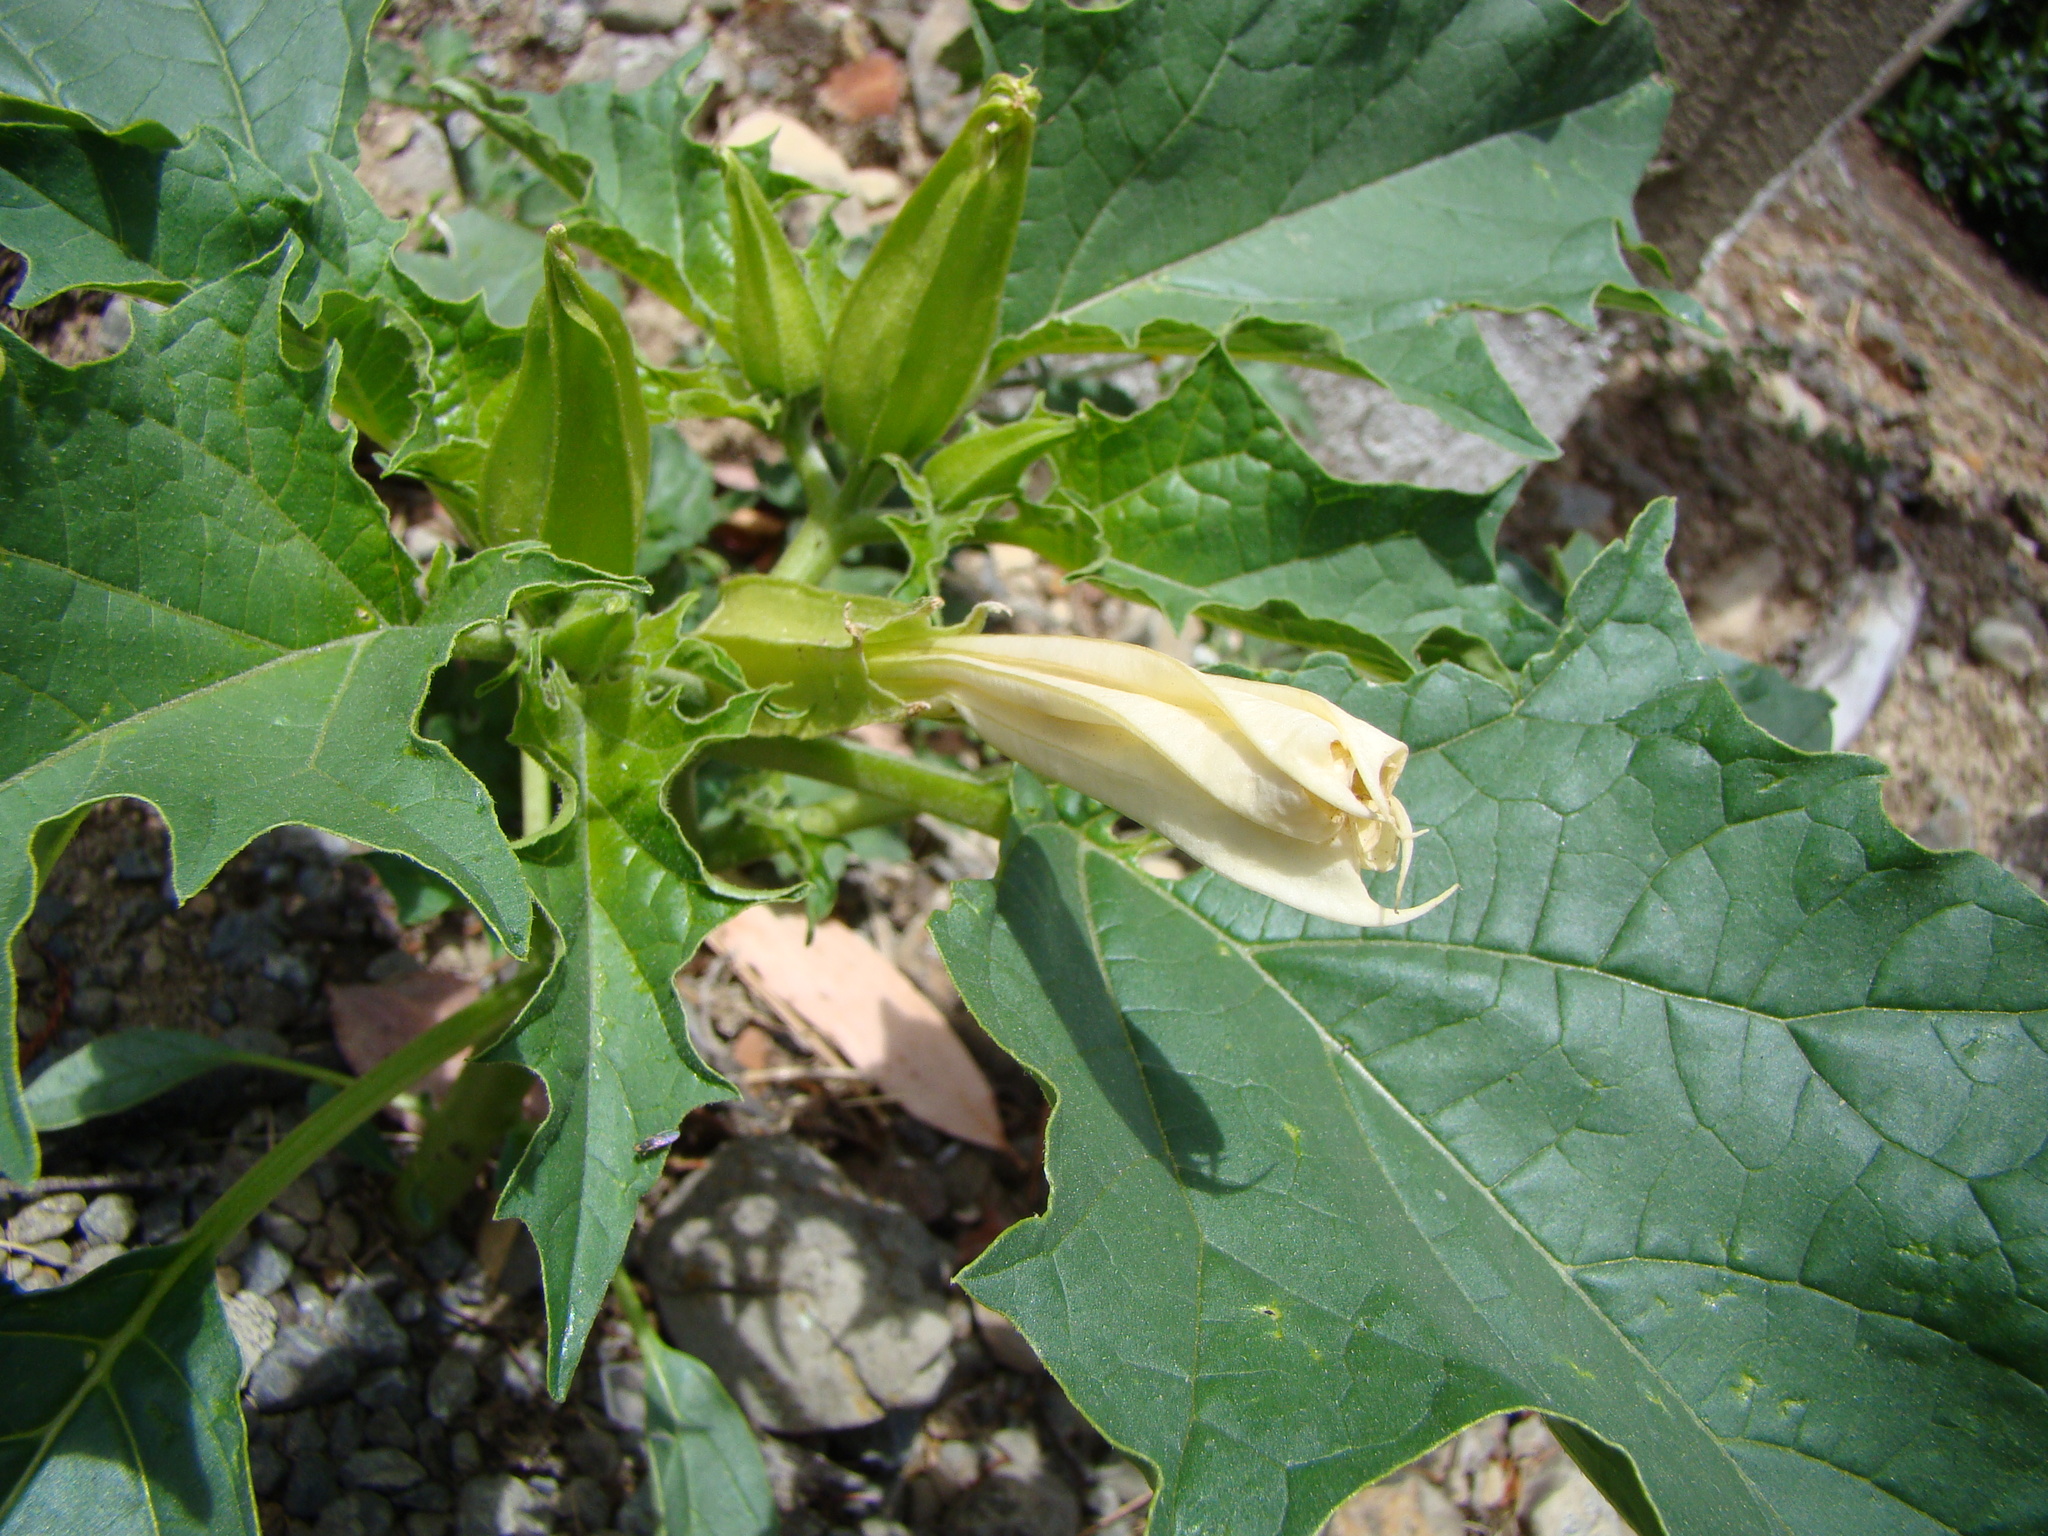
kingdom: Plantae
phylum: Tracheophyta
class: Magnoliopsida
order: Solanales
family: Solanaceae
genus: Datura
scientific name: Datura stramonium
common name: Thorn-apple
